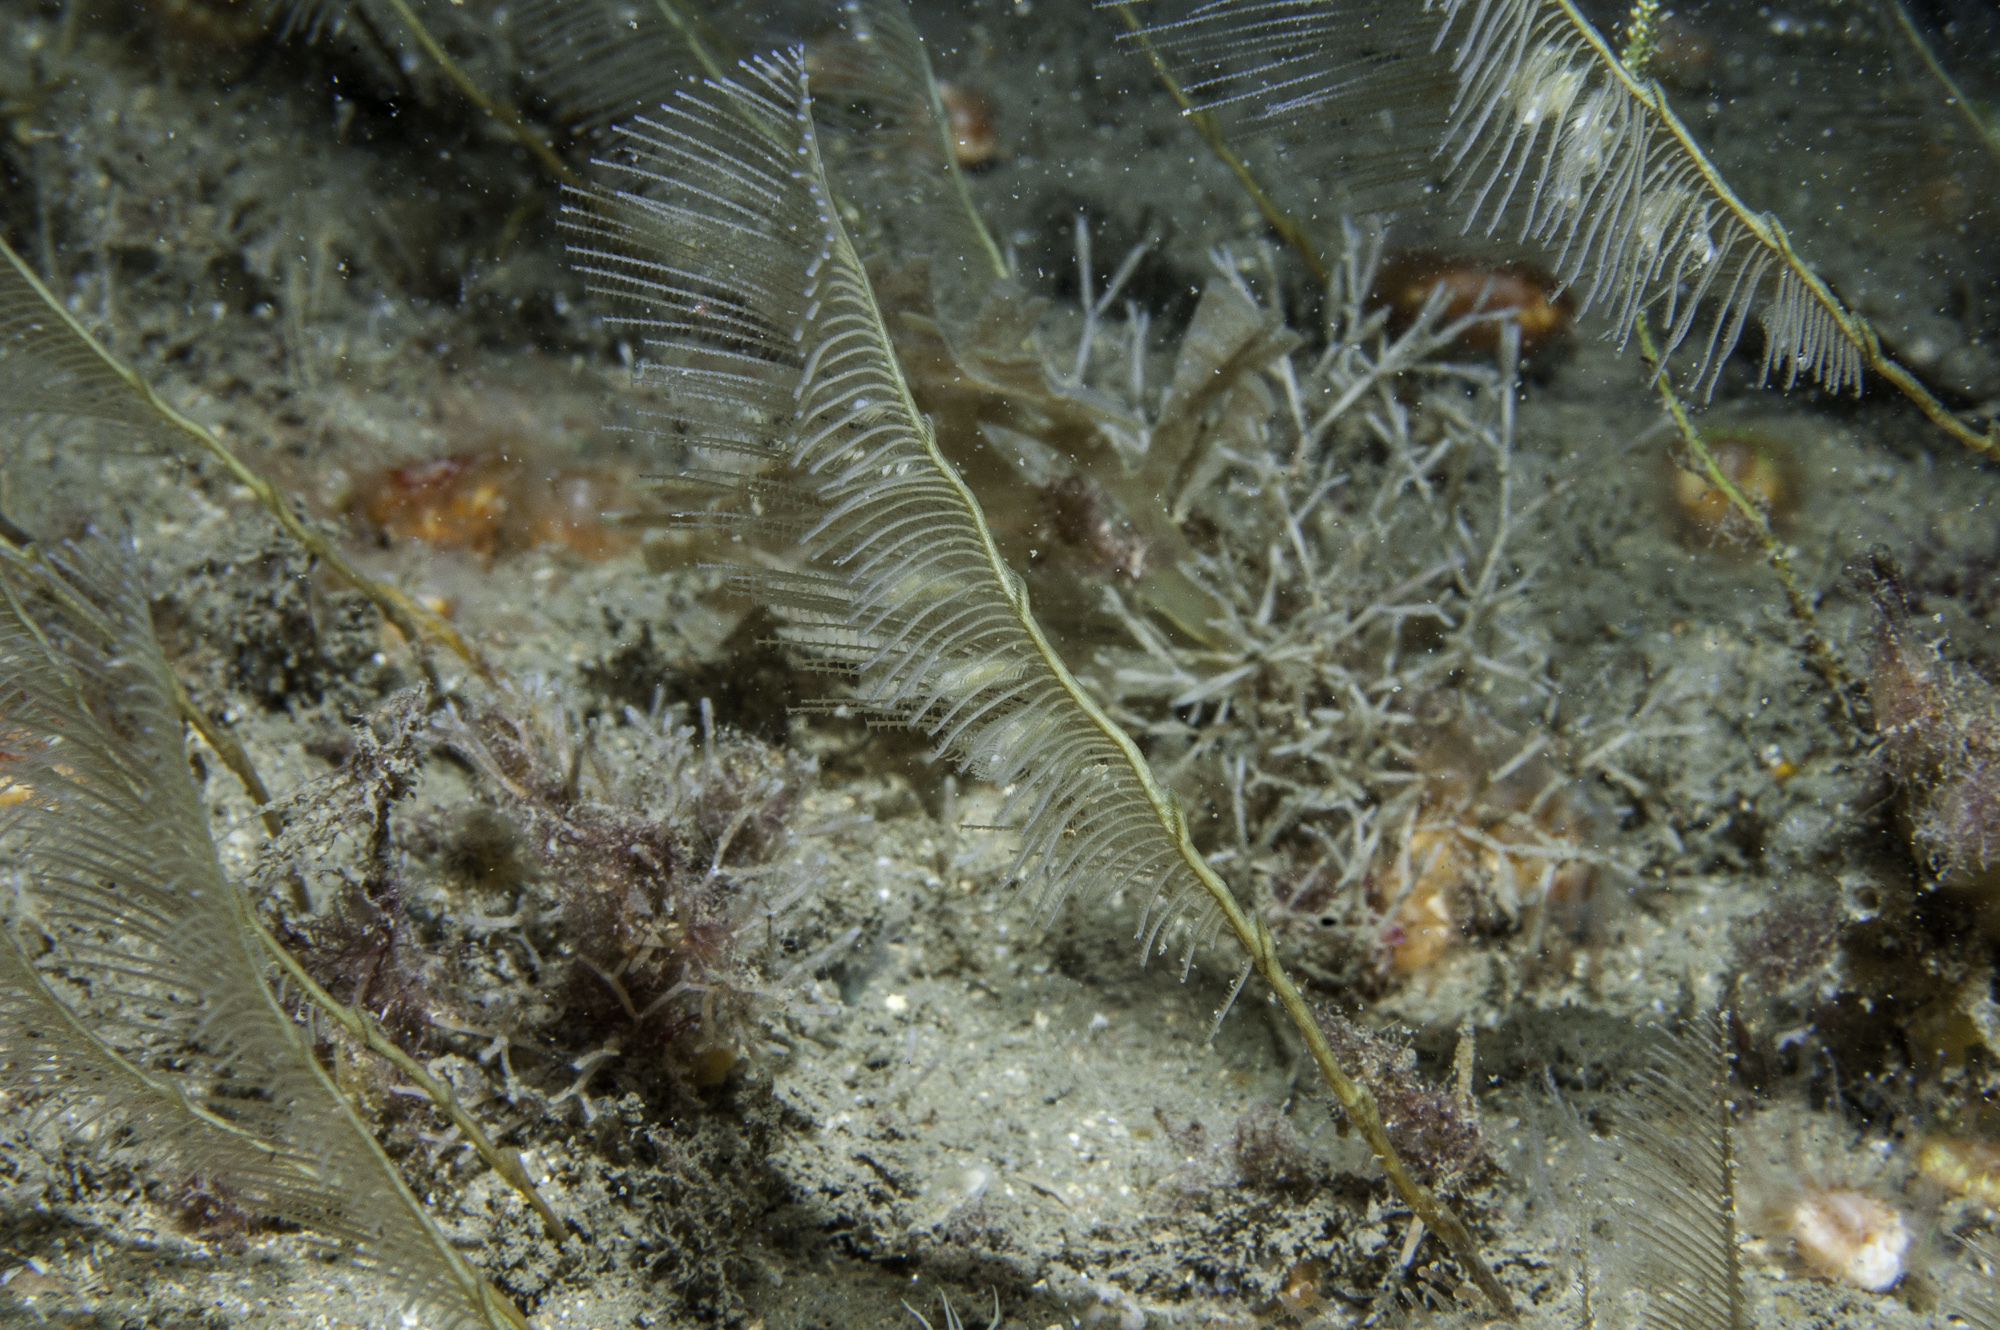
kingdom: Animalia
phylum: Cnidaria
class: Hydrozoa
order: Leptothecata
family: Aglaopheniidae
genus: Lytocarpia
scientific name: Lytocarpia myriophyllum
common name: Pheasant-tail hydroid
